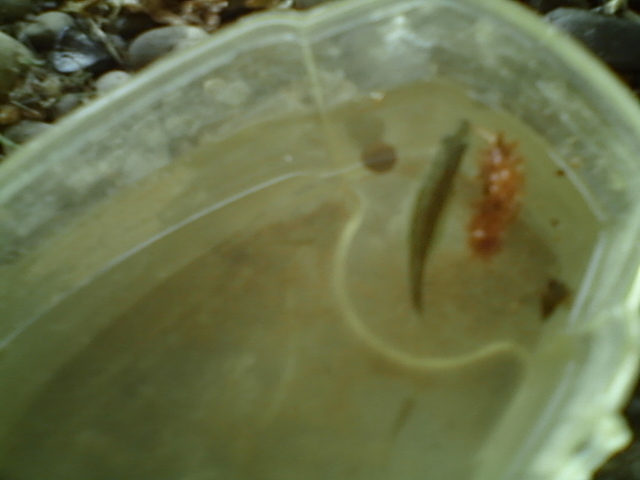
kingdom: Animalia
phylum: Chordata
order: Gasterosteiformes
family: Gasterosteidae
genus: Gasterosteus
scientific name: Gasterosteus aculeatus
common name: Three-spined stickleback
